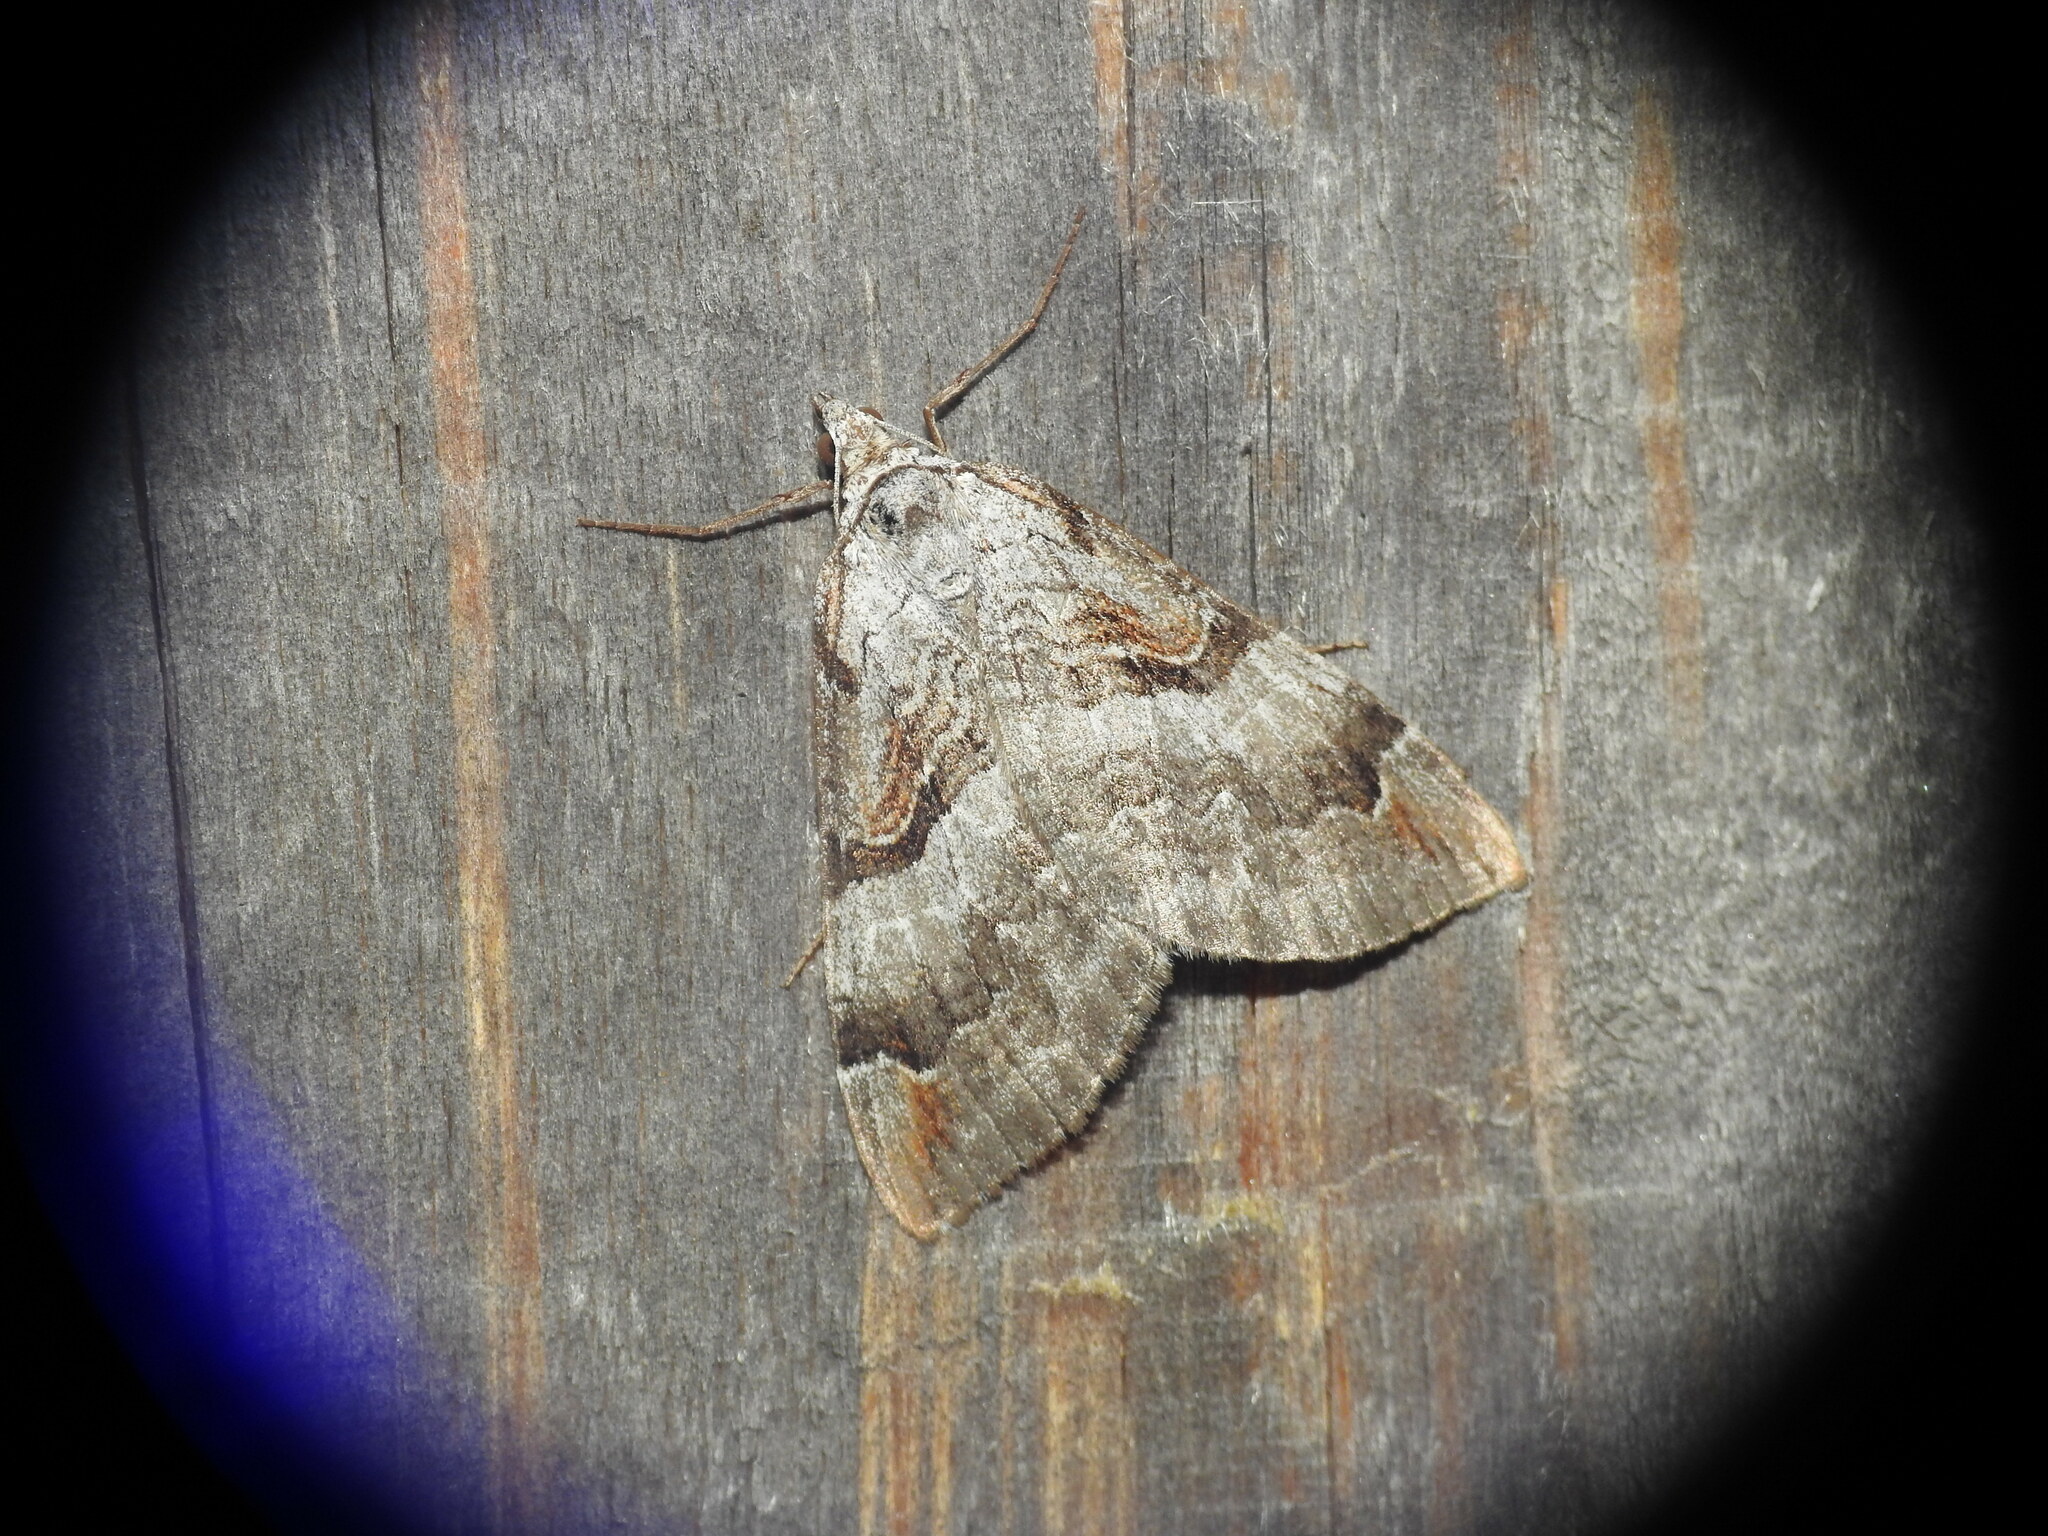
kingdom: Animalia
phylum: Arthropoda
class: Insecta
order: Lepidoptera
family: Geometridae
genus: Aplocera
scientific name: Aplocera praeformata
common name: Purple treble-bar
